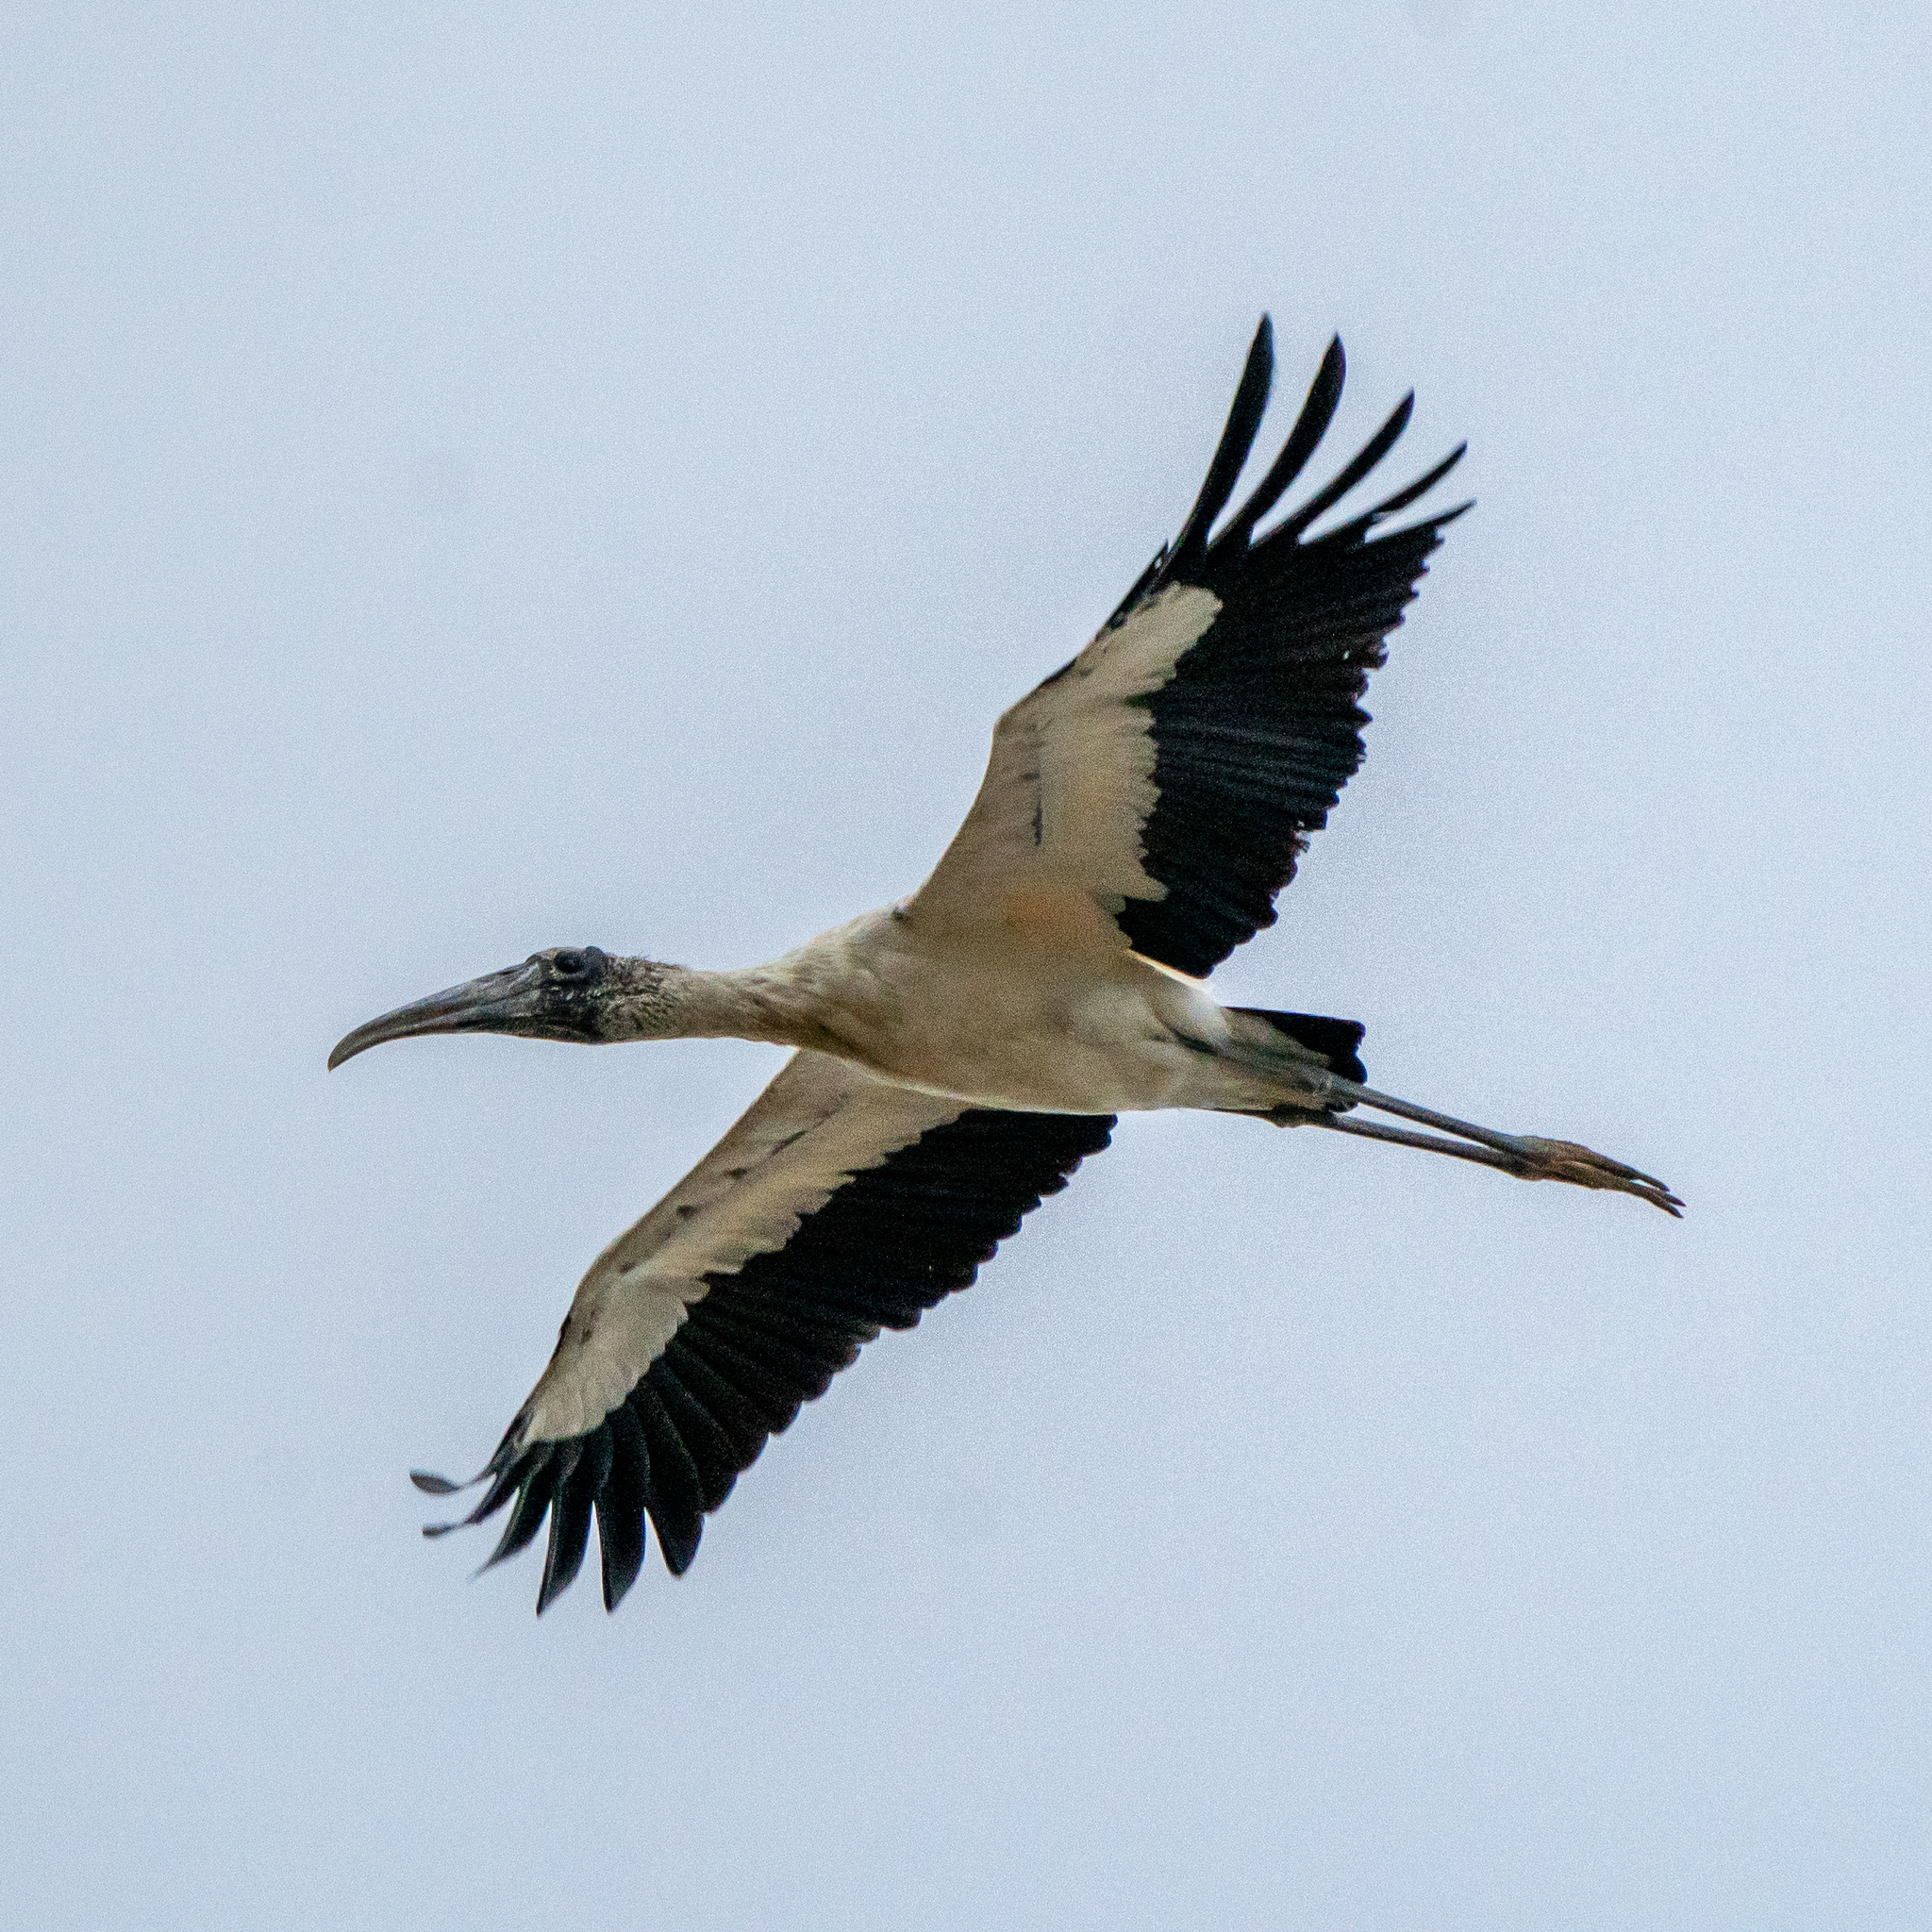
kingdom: Animalia
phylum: Chordata
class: Aves
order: Ciconiiformes
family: Ciconiidae
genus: Mycteria
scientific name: Mycteria americana
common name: Wood stork
